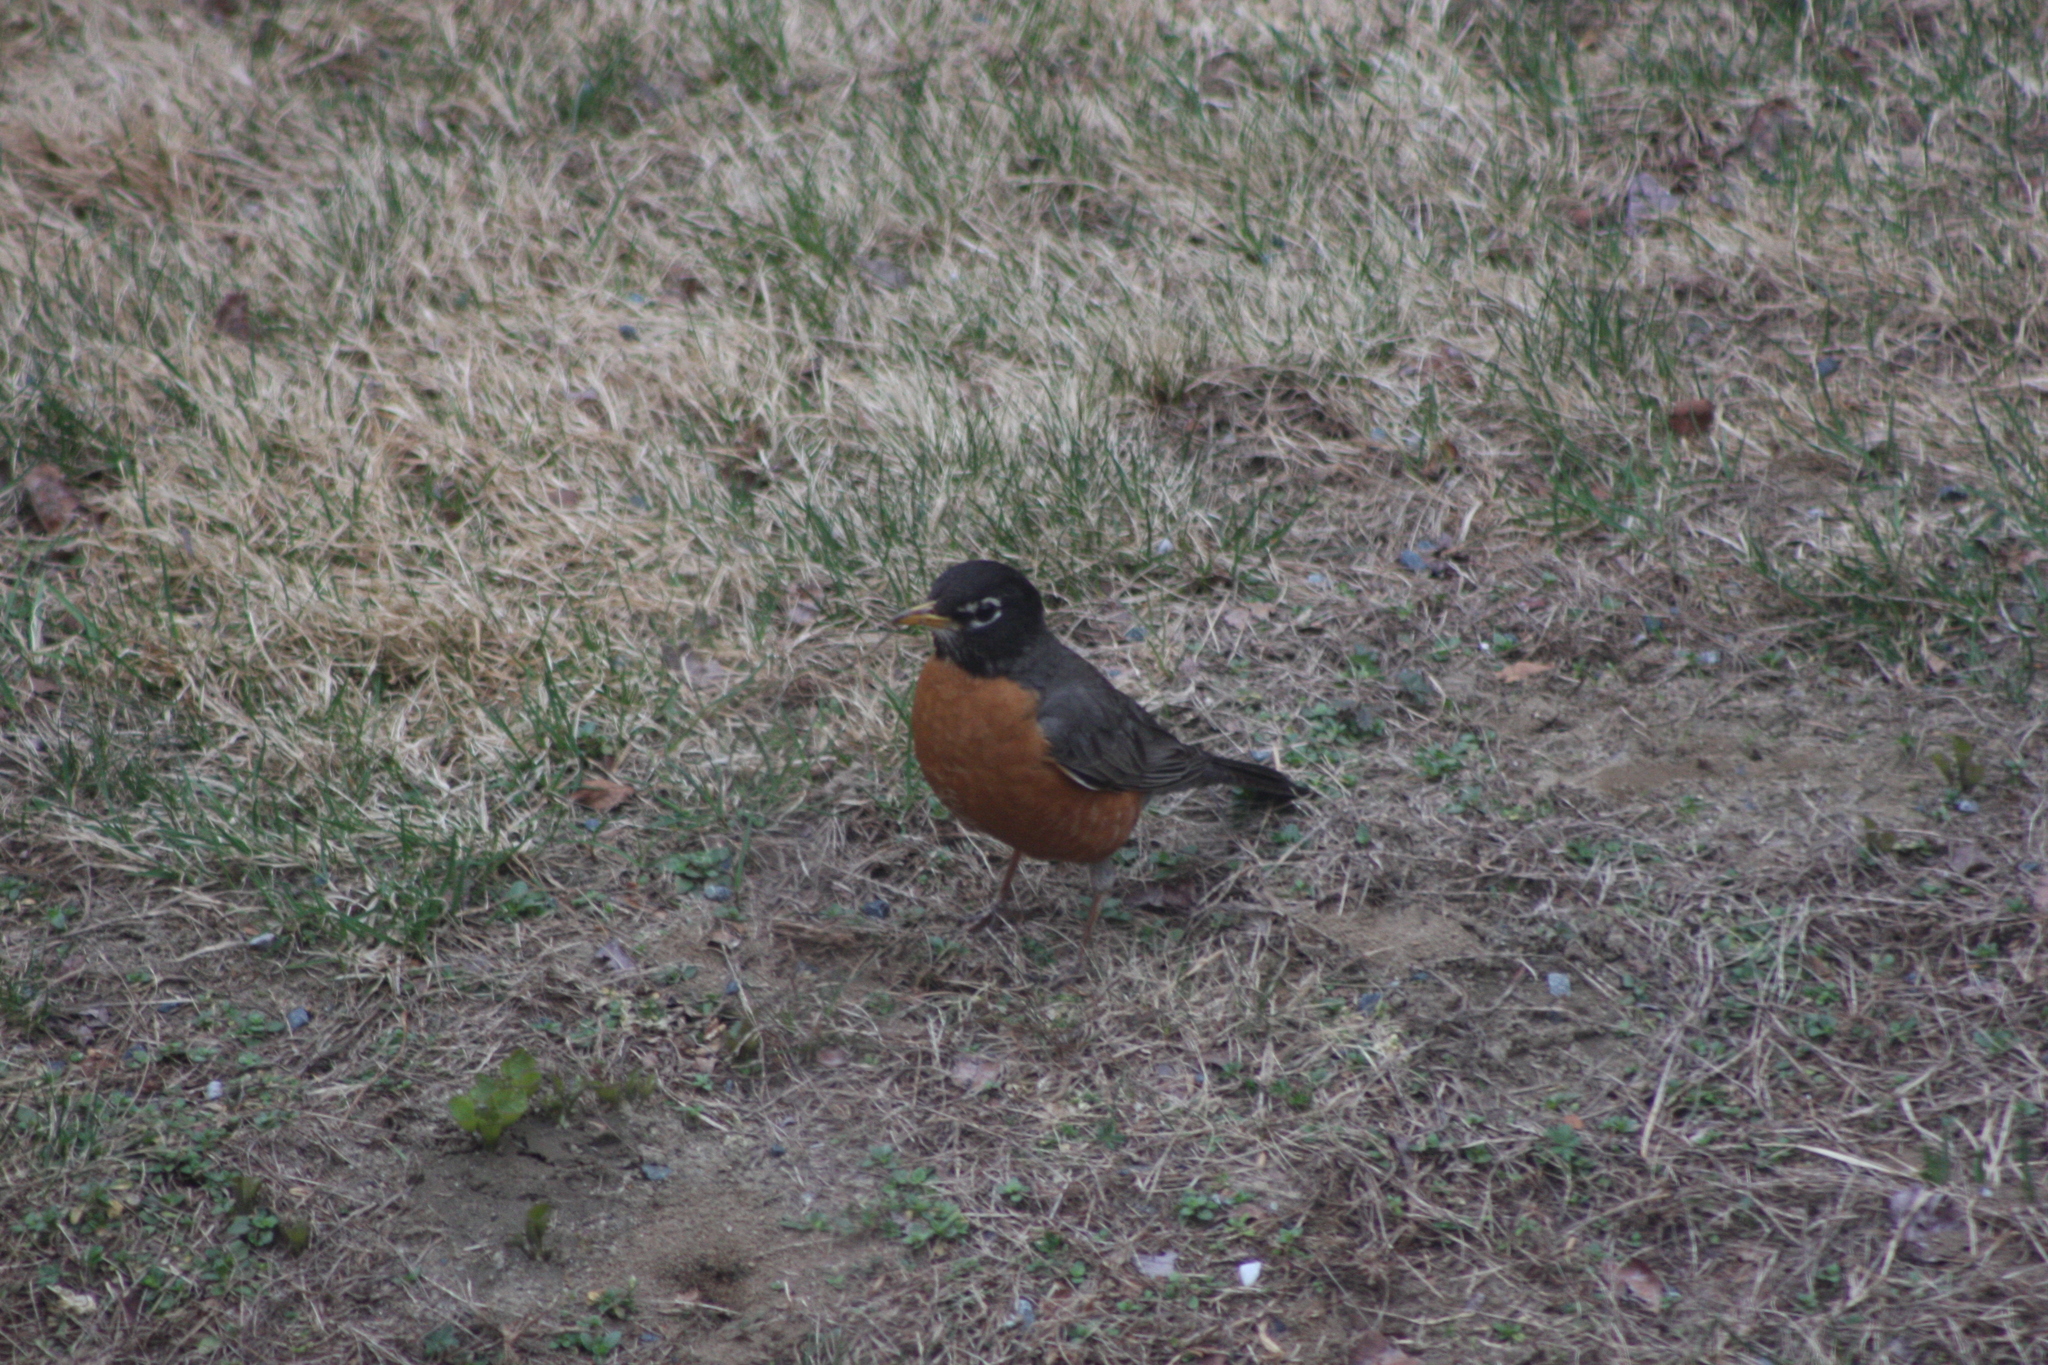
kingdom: Animalia
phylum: Chordata
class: Aves
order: Passeriformes
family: Turdidae
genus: Turdus
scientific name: Turdus migratorius
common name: American robin
